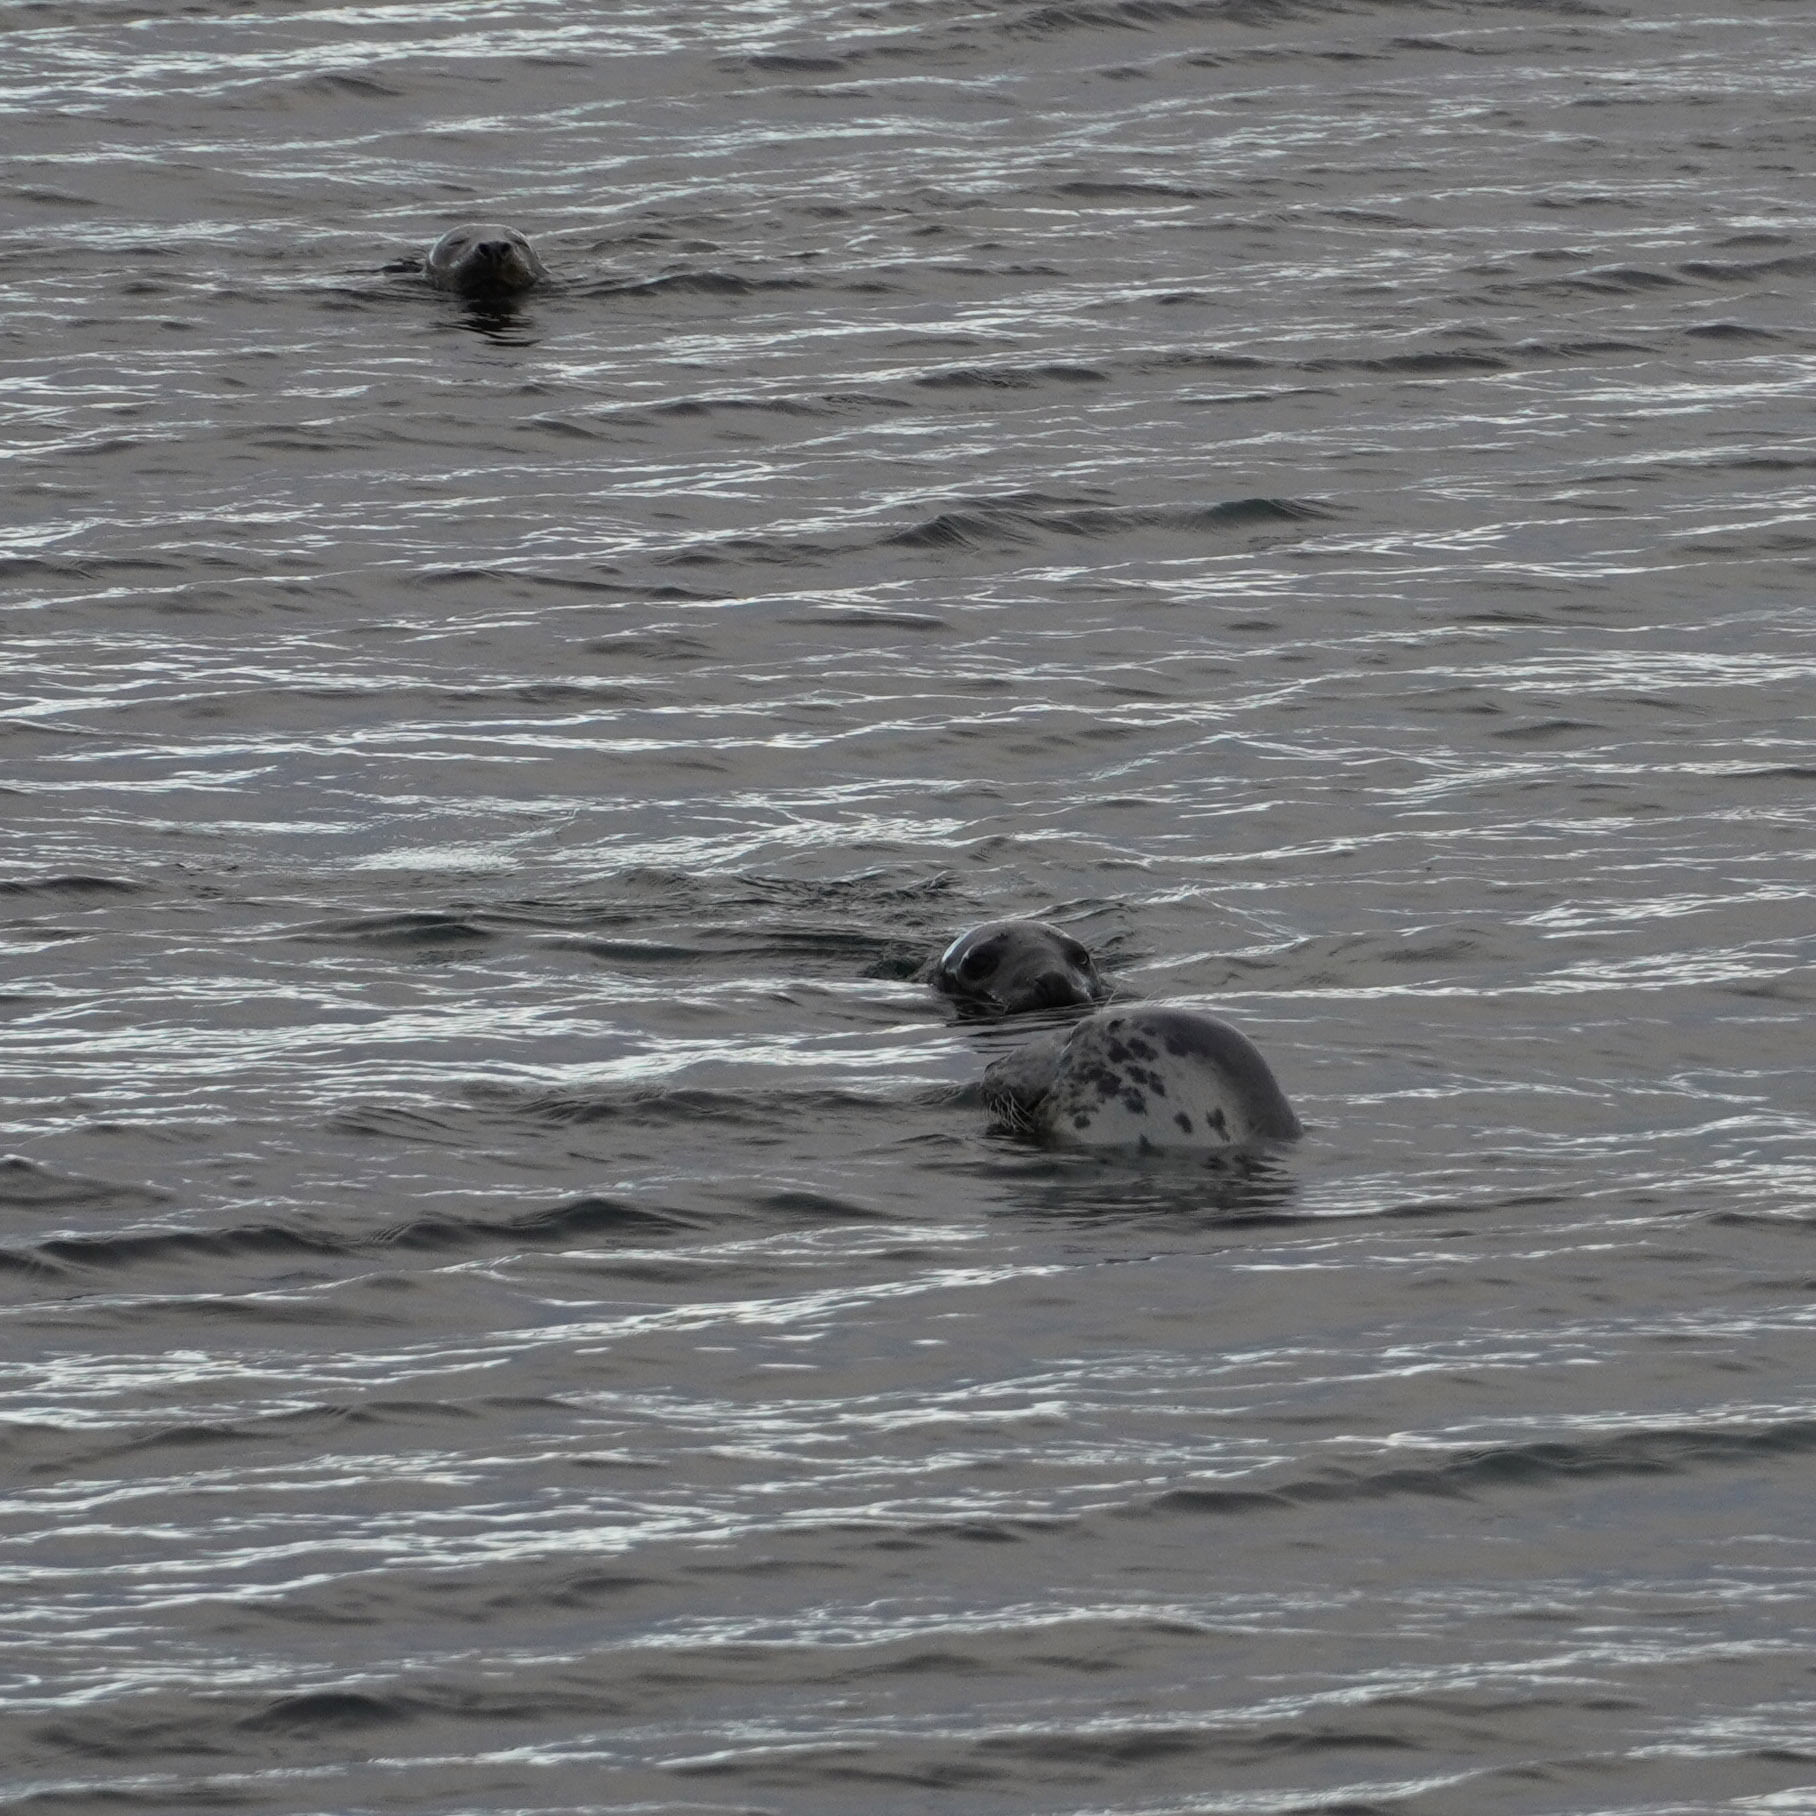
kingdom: Animalia
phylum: Chordata
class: Mammalia
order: Carnivora
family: Phocidae
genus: Halichoerus
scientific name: Halichoerus grypus
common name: Grey seal
